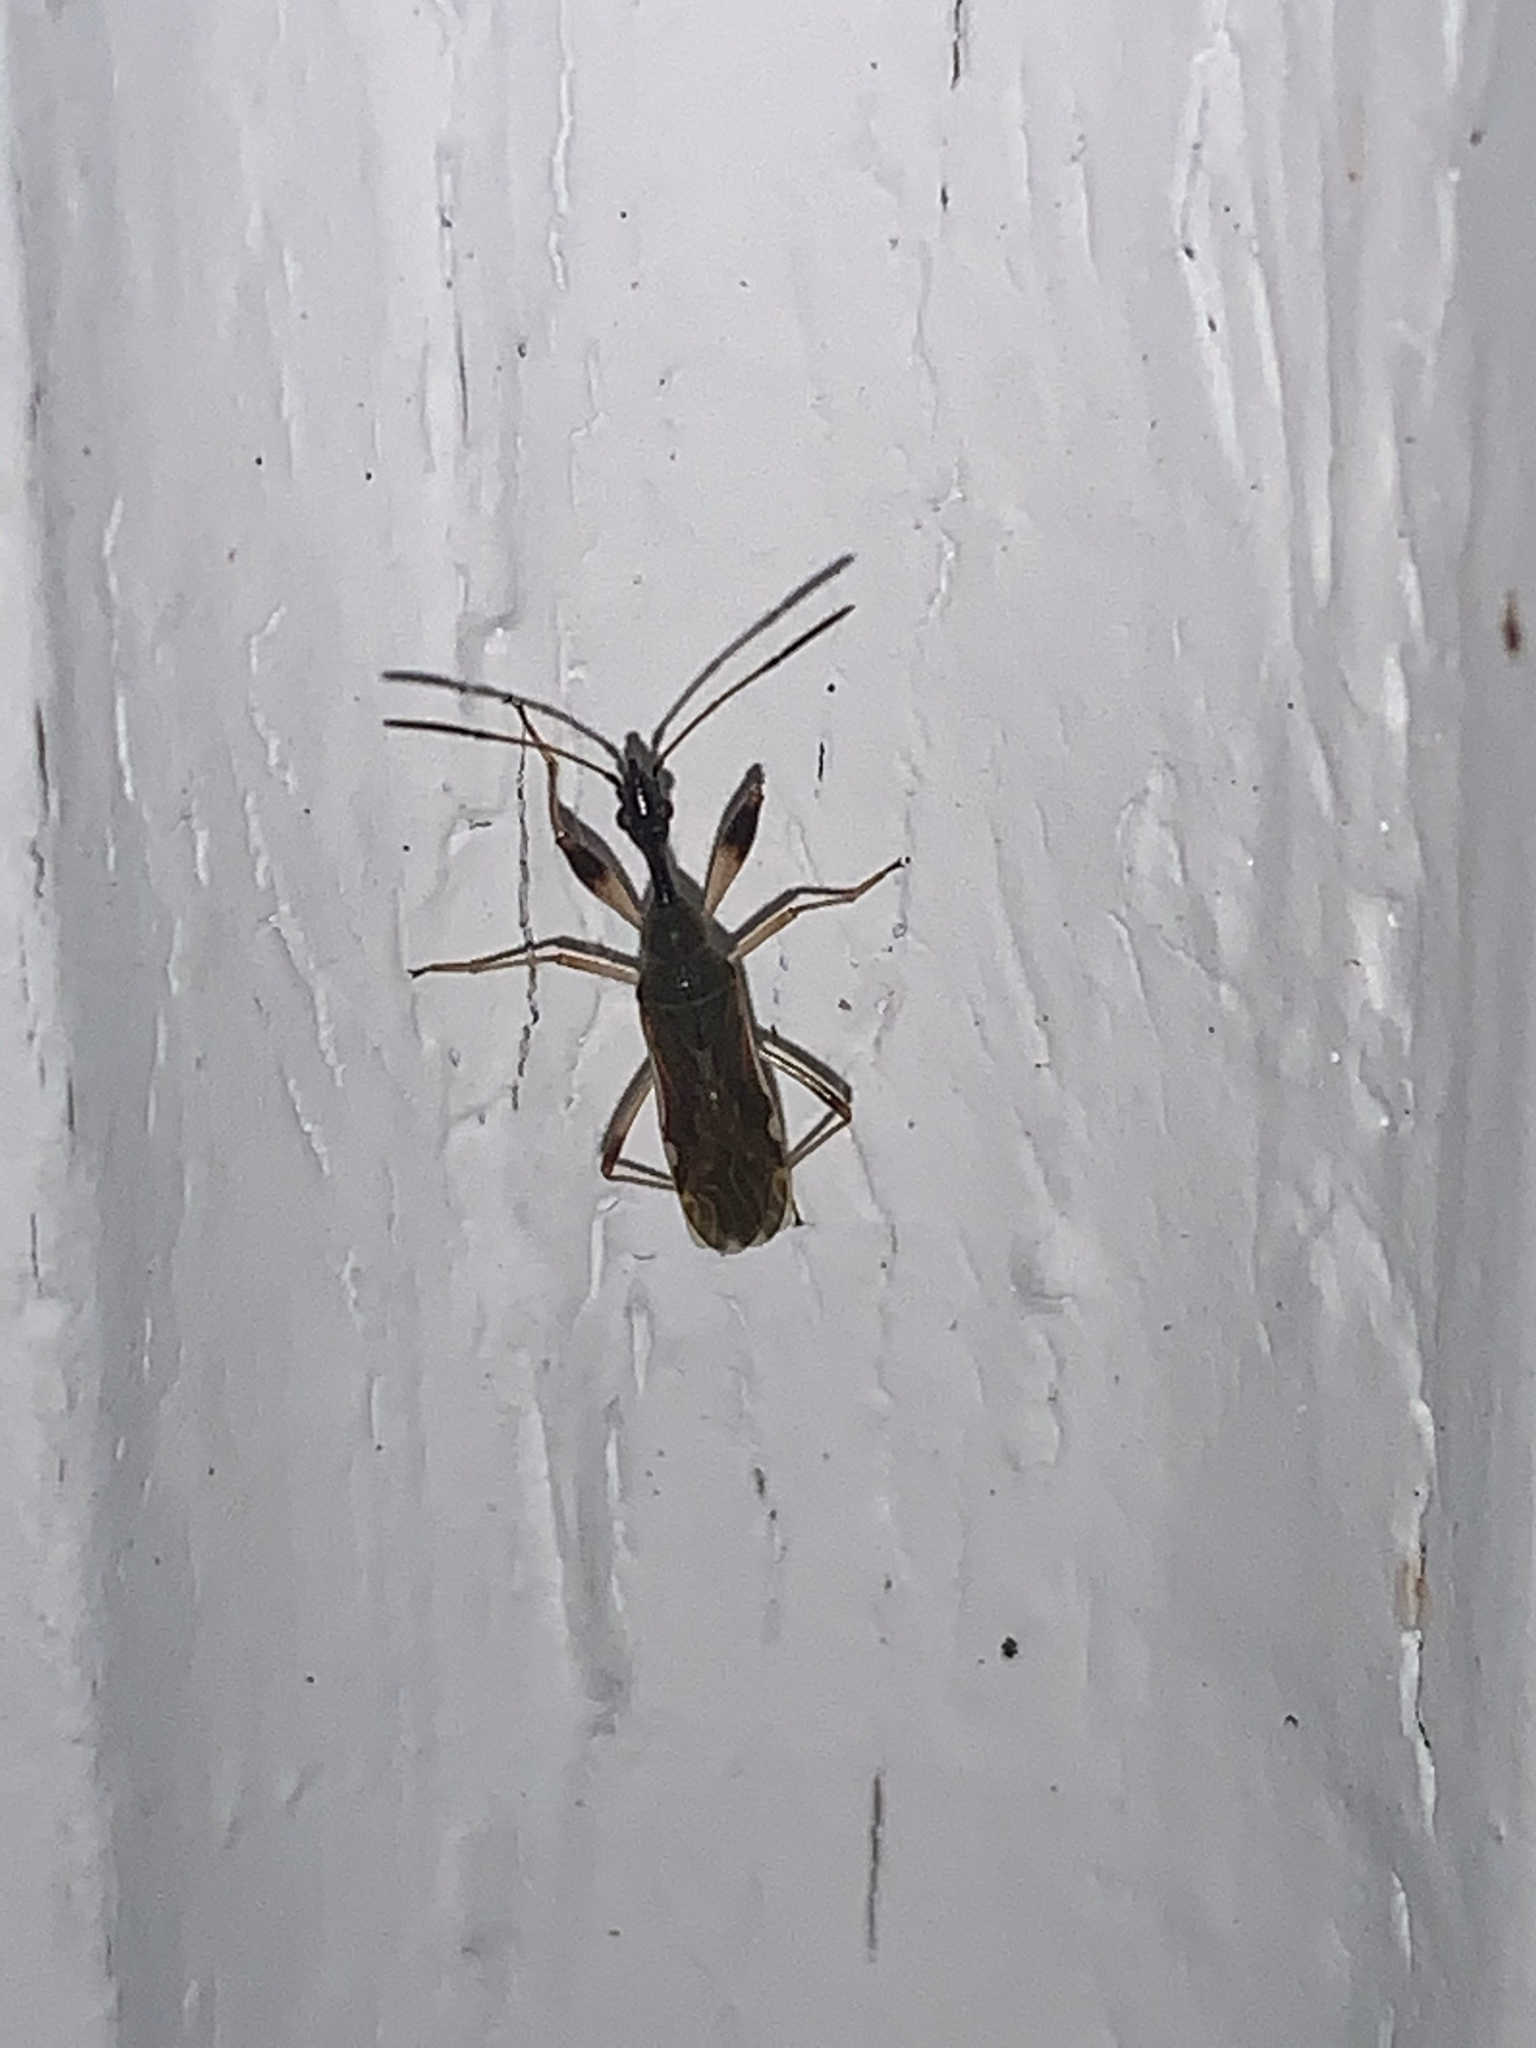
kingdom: Animalia
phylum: Arthropoda
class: Insecta
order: Hemiptera
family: Rhyparochromidae
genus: Myodocha
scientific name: Myodocha serripes
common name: Long-necked seed bug
